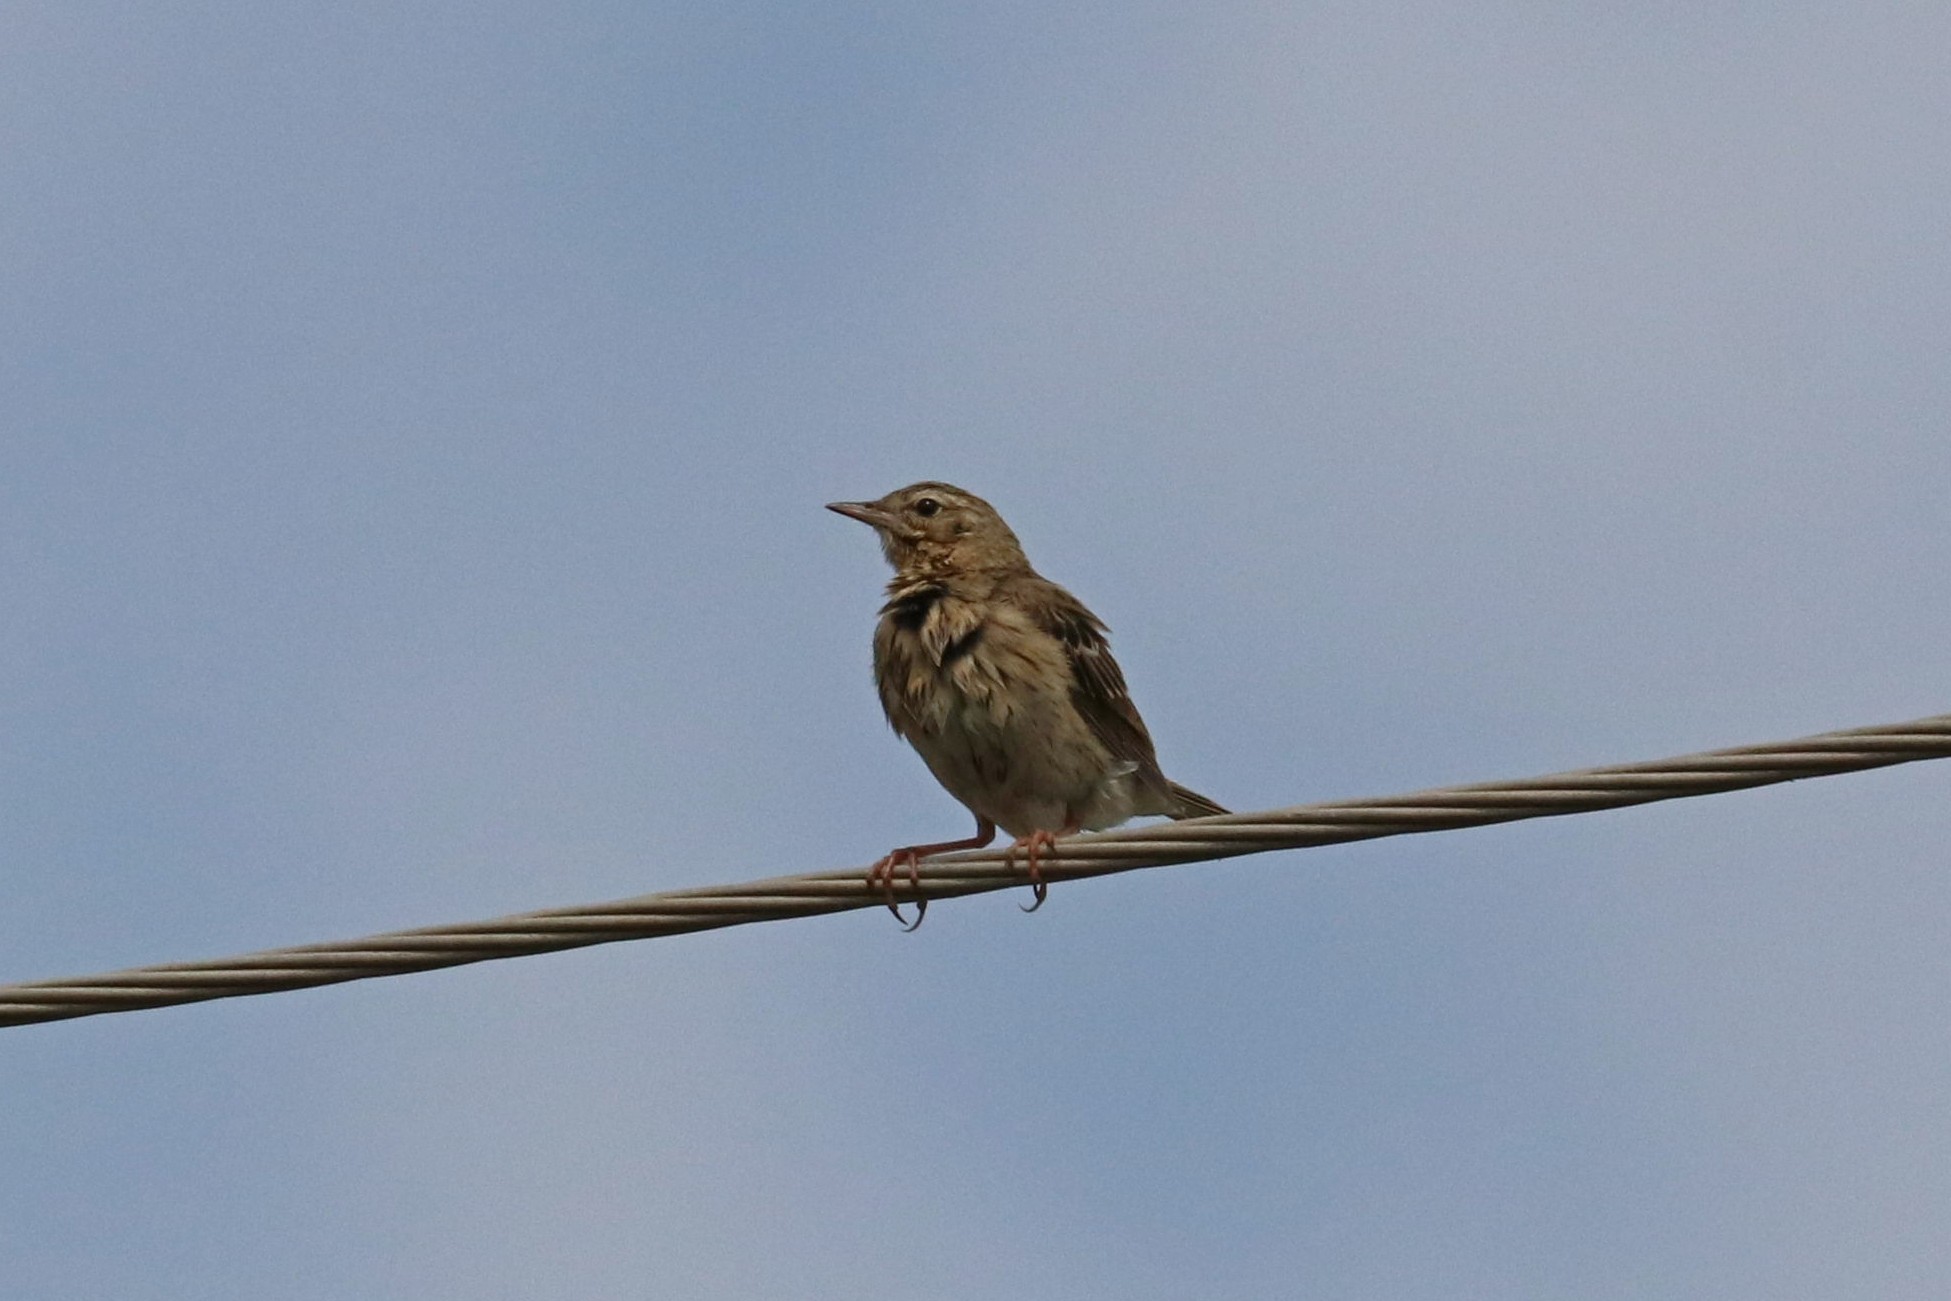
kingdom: Animalia
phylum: Chordata
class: Aves
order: Passeriformes
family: Motacillidae
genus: Anthus
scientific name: Anthus trivialis
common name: Tree pipit
